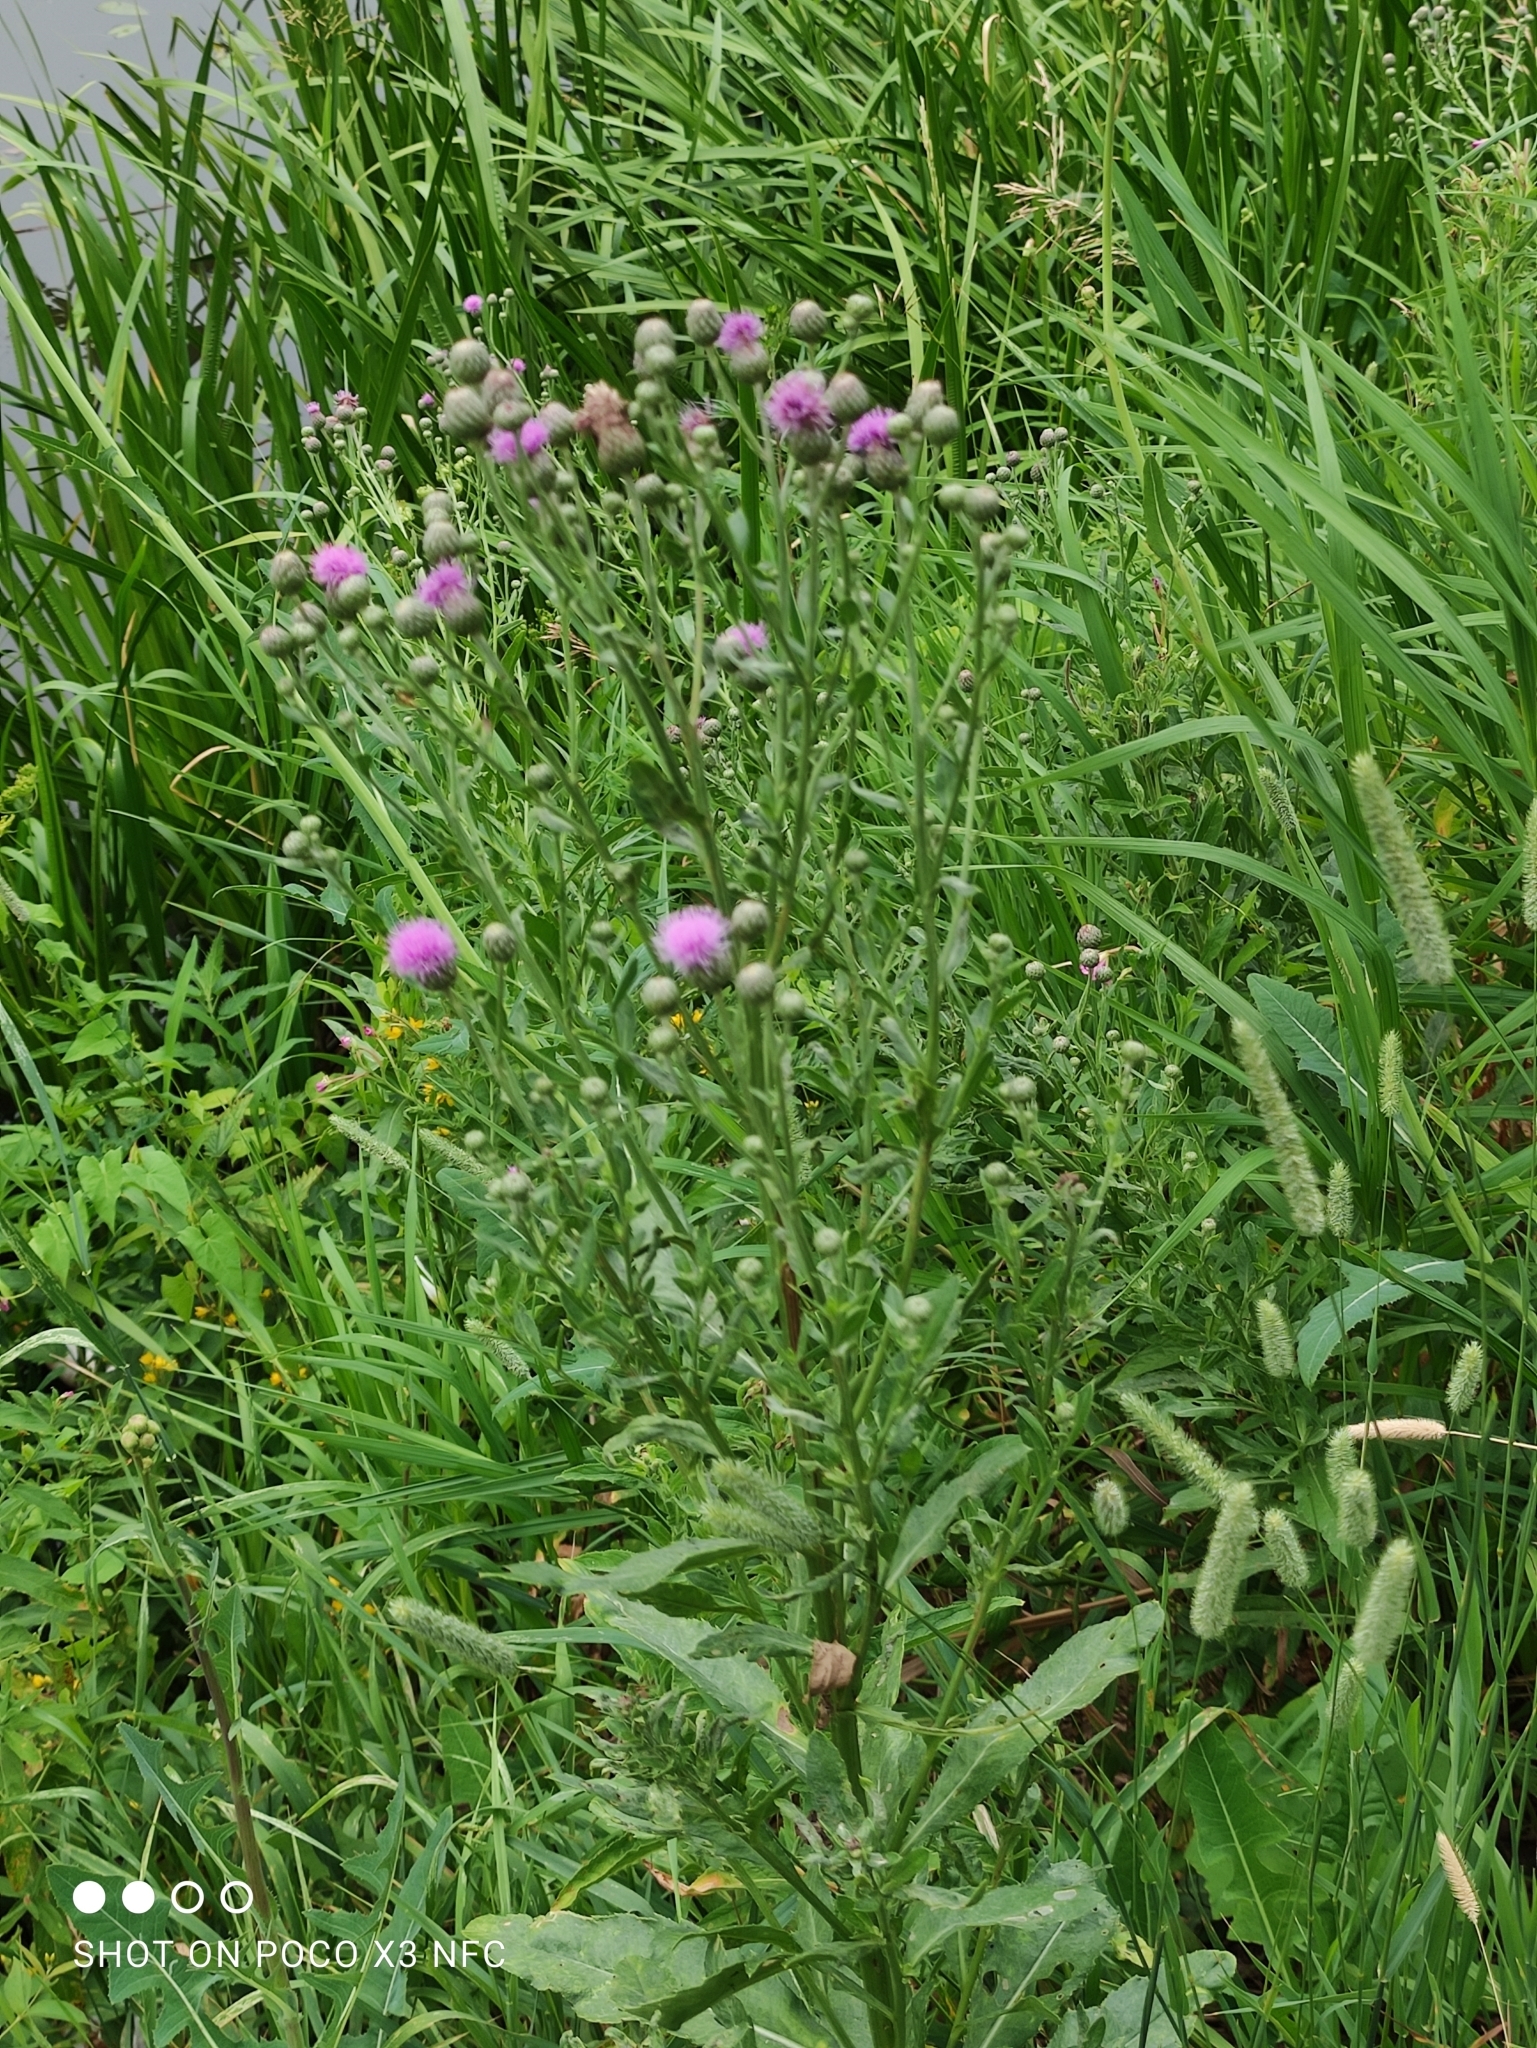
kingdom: Plantae
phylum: Tracheophyta
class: Magnoliopsida
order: Asterales
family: Asteraceae
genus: Cirsium
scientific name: Cirsium arvense
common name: Creeping thistle
